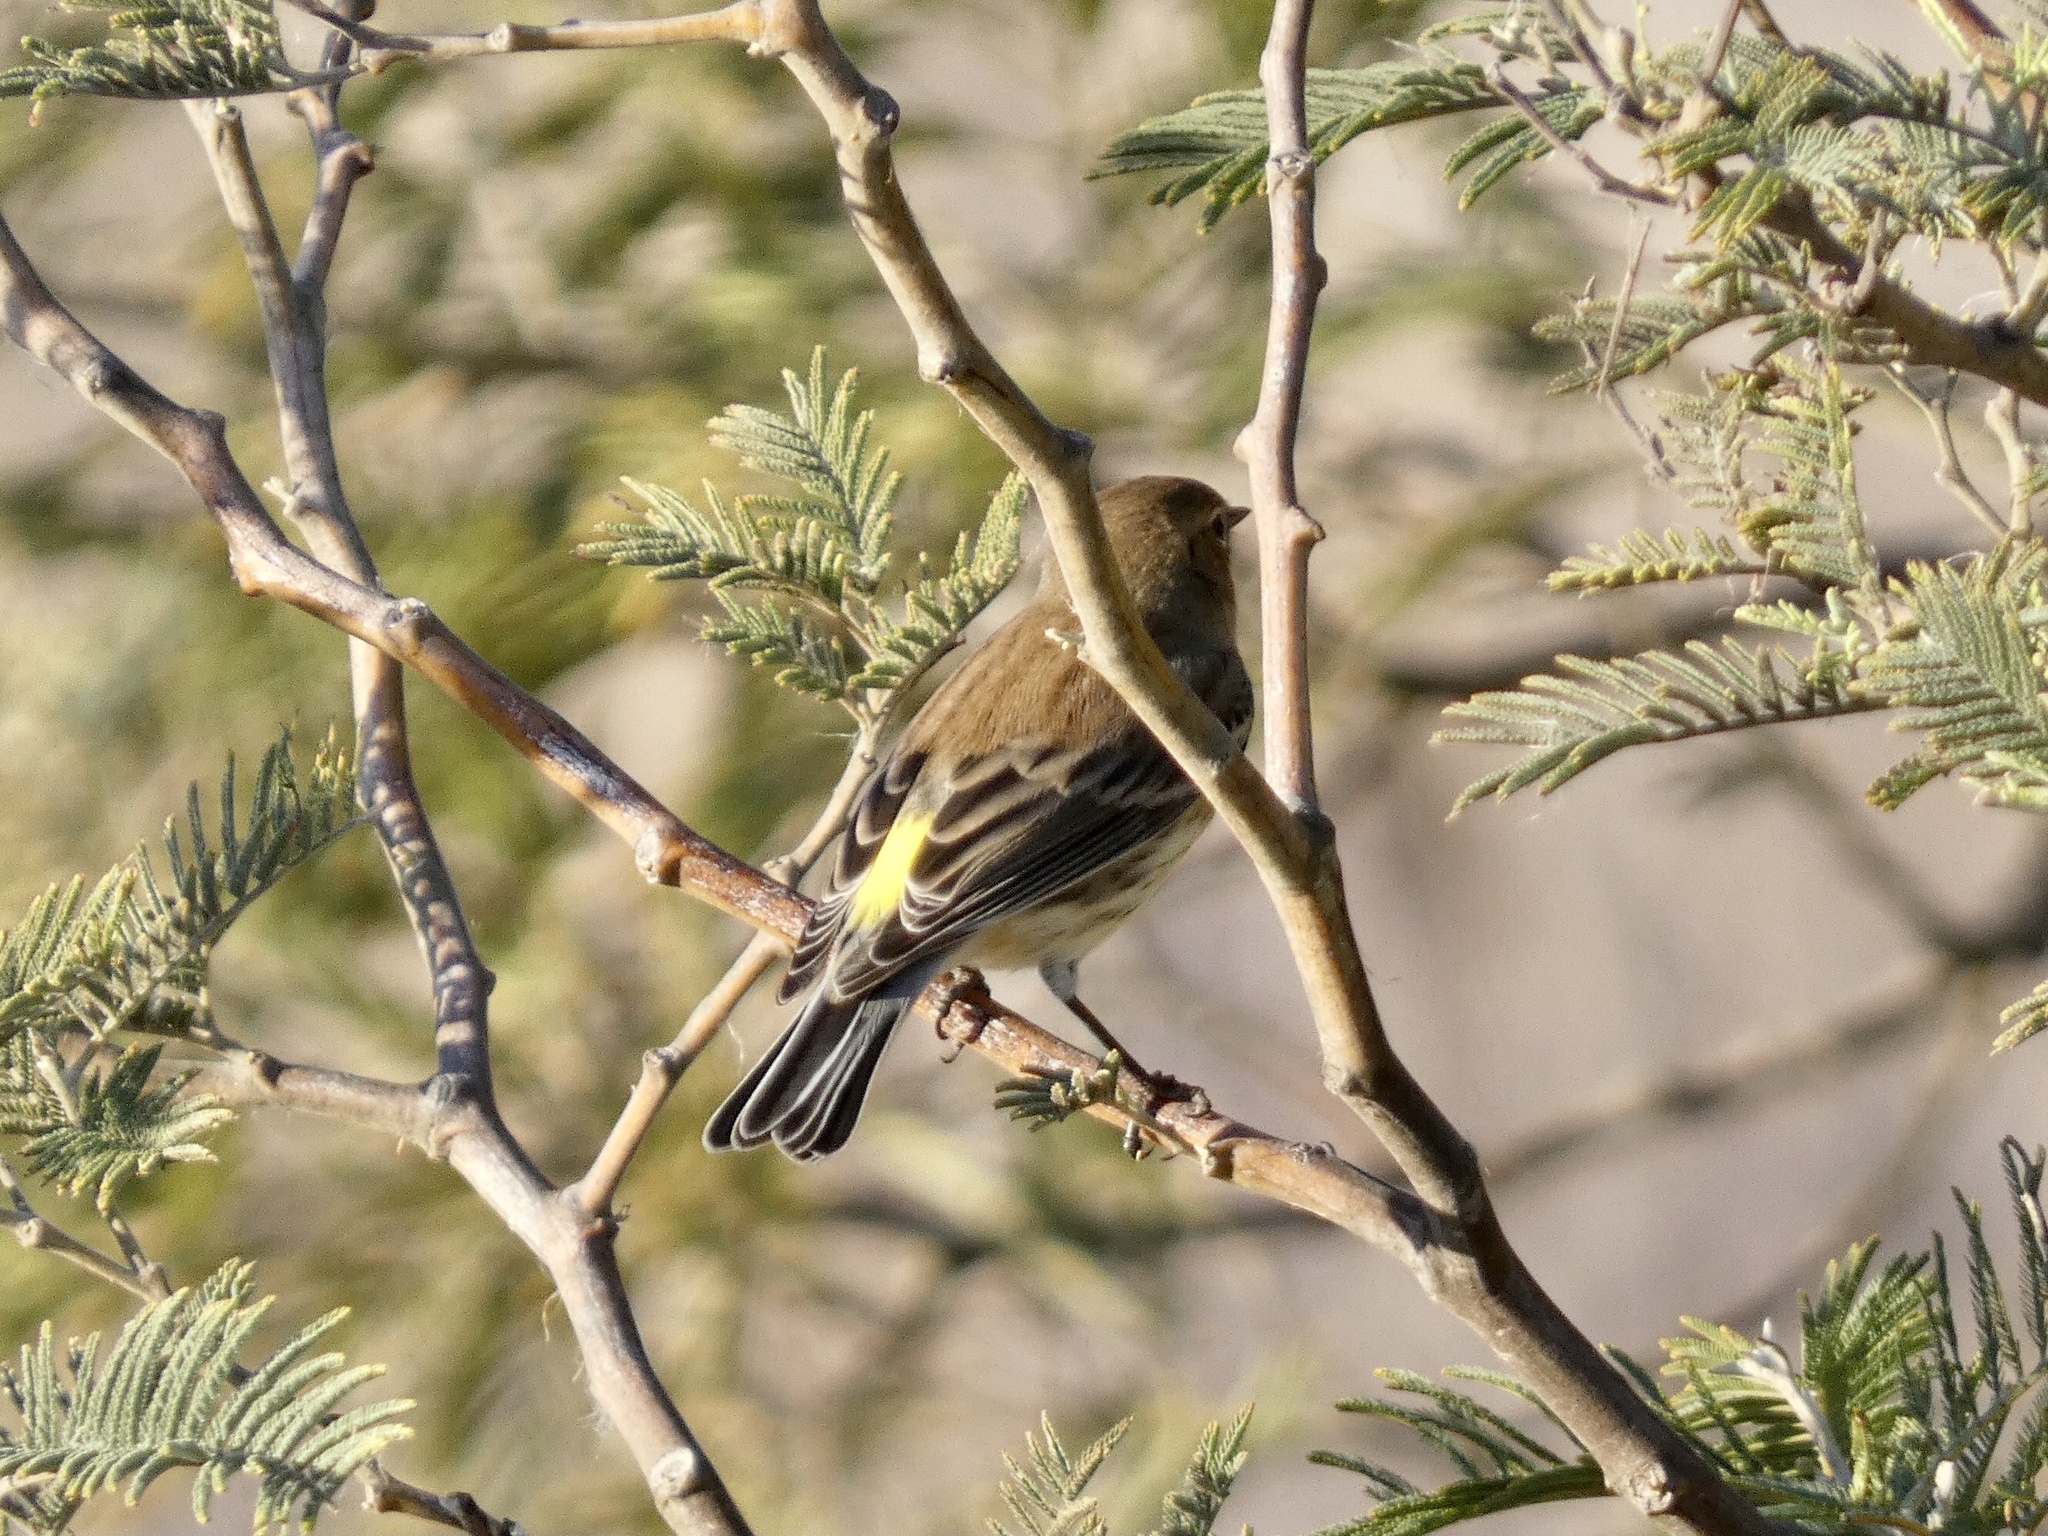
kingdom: Animalia
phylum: Chordata
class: Aves
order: Passeriformes
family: Parulidae
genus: Setophaga
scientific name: Setophaga coronata
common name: Myrtle warbler
